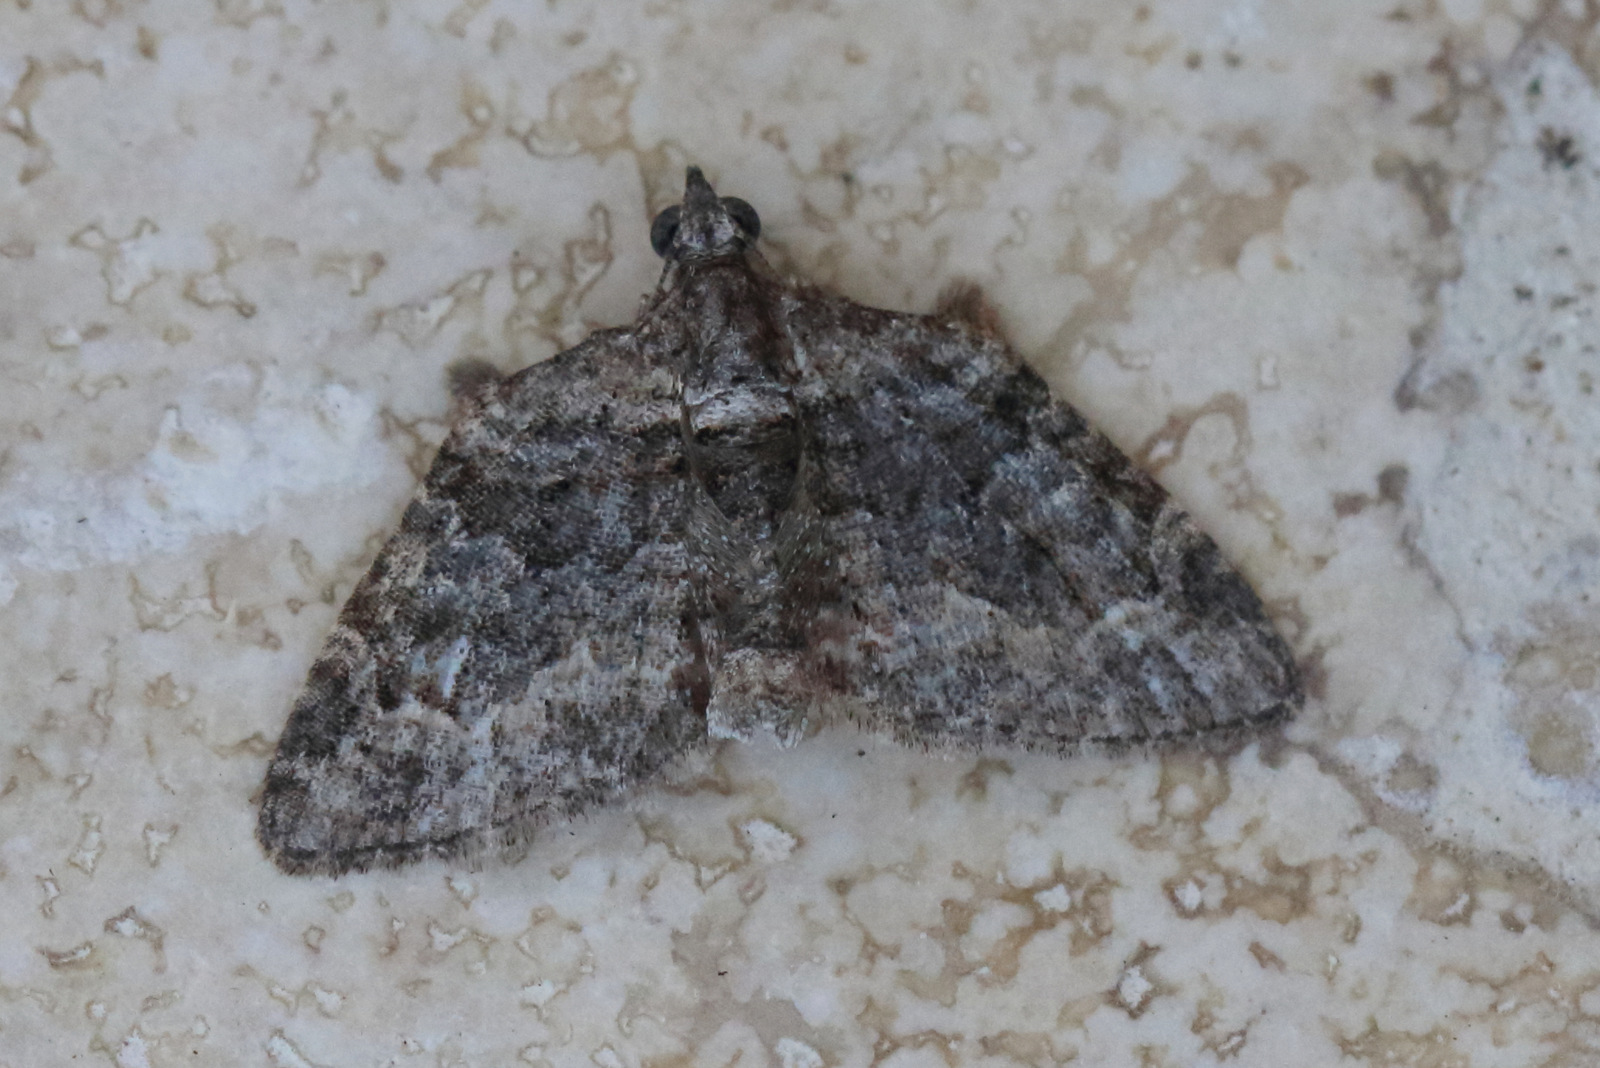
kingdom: Animalia
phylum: Arthropoda
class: Insecta
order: Lepidoptera
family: Geometridae
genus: Phrissogonus
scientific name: Phrissogonus laticostata
